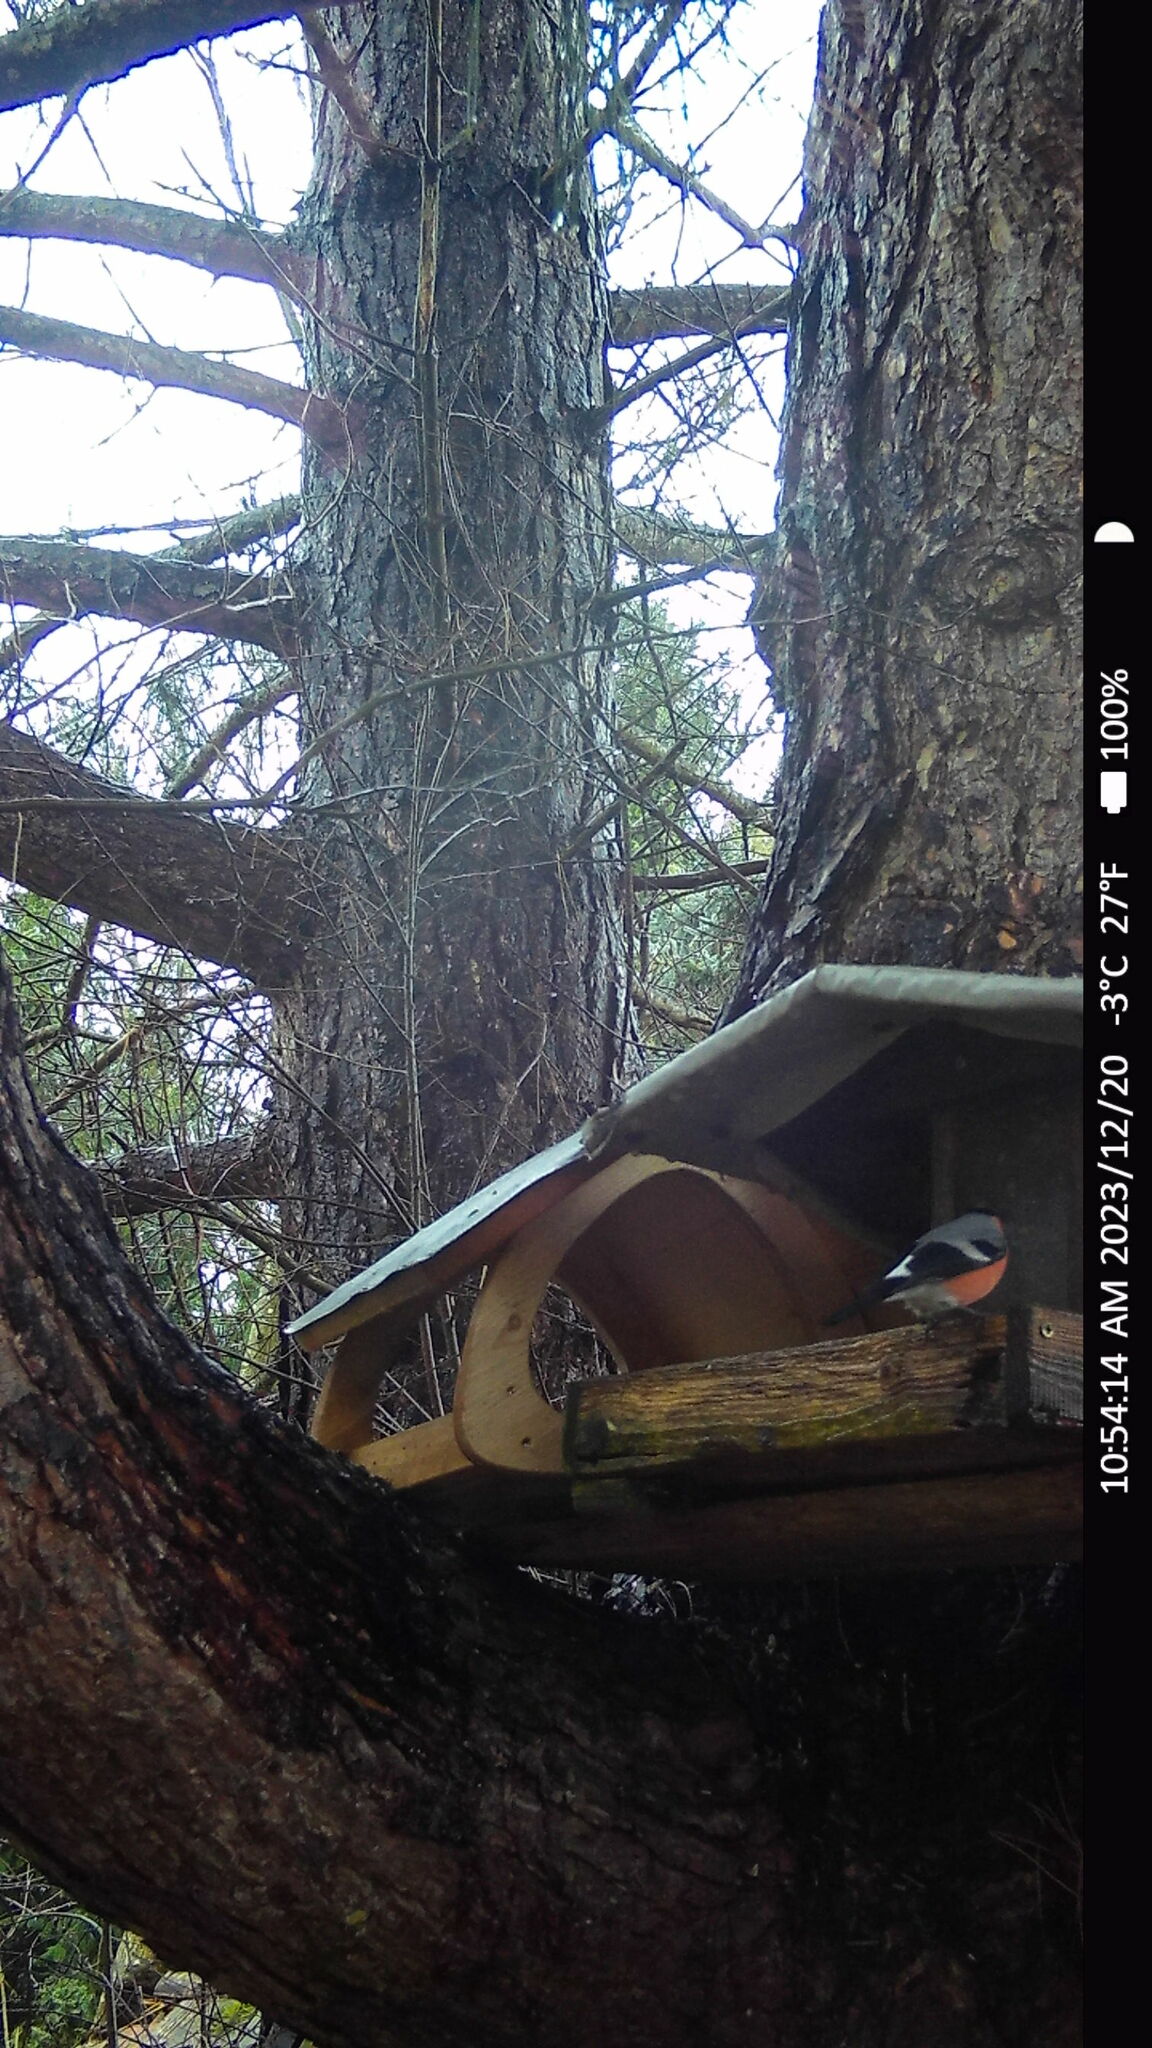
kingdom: Animalia
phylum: Chordata
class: Aves
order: Passeriformes
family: Fringillidae
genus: Pyrrhula
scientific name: Pyrrhula pyrrhula
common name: Eurasian bullfinch
